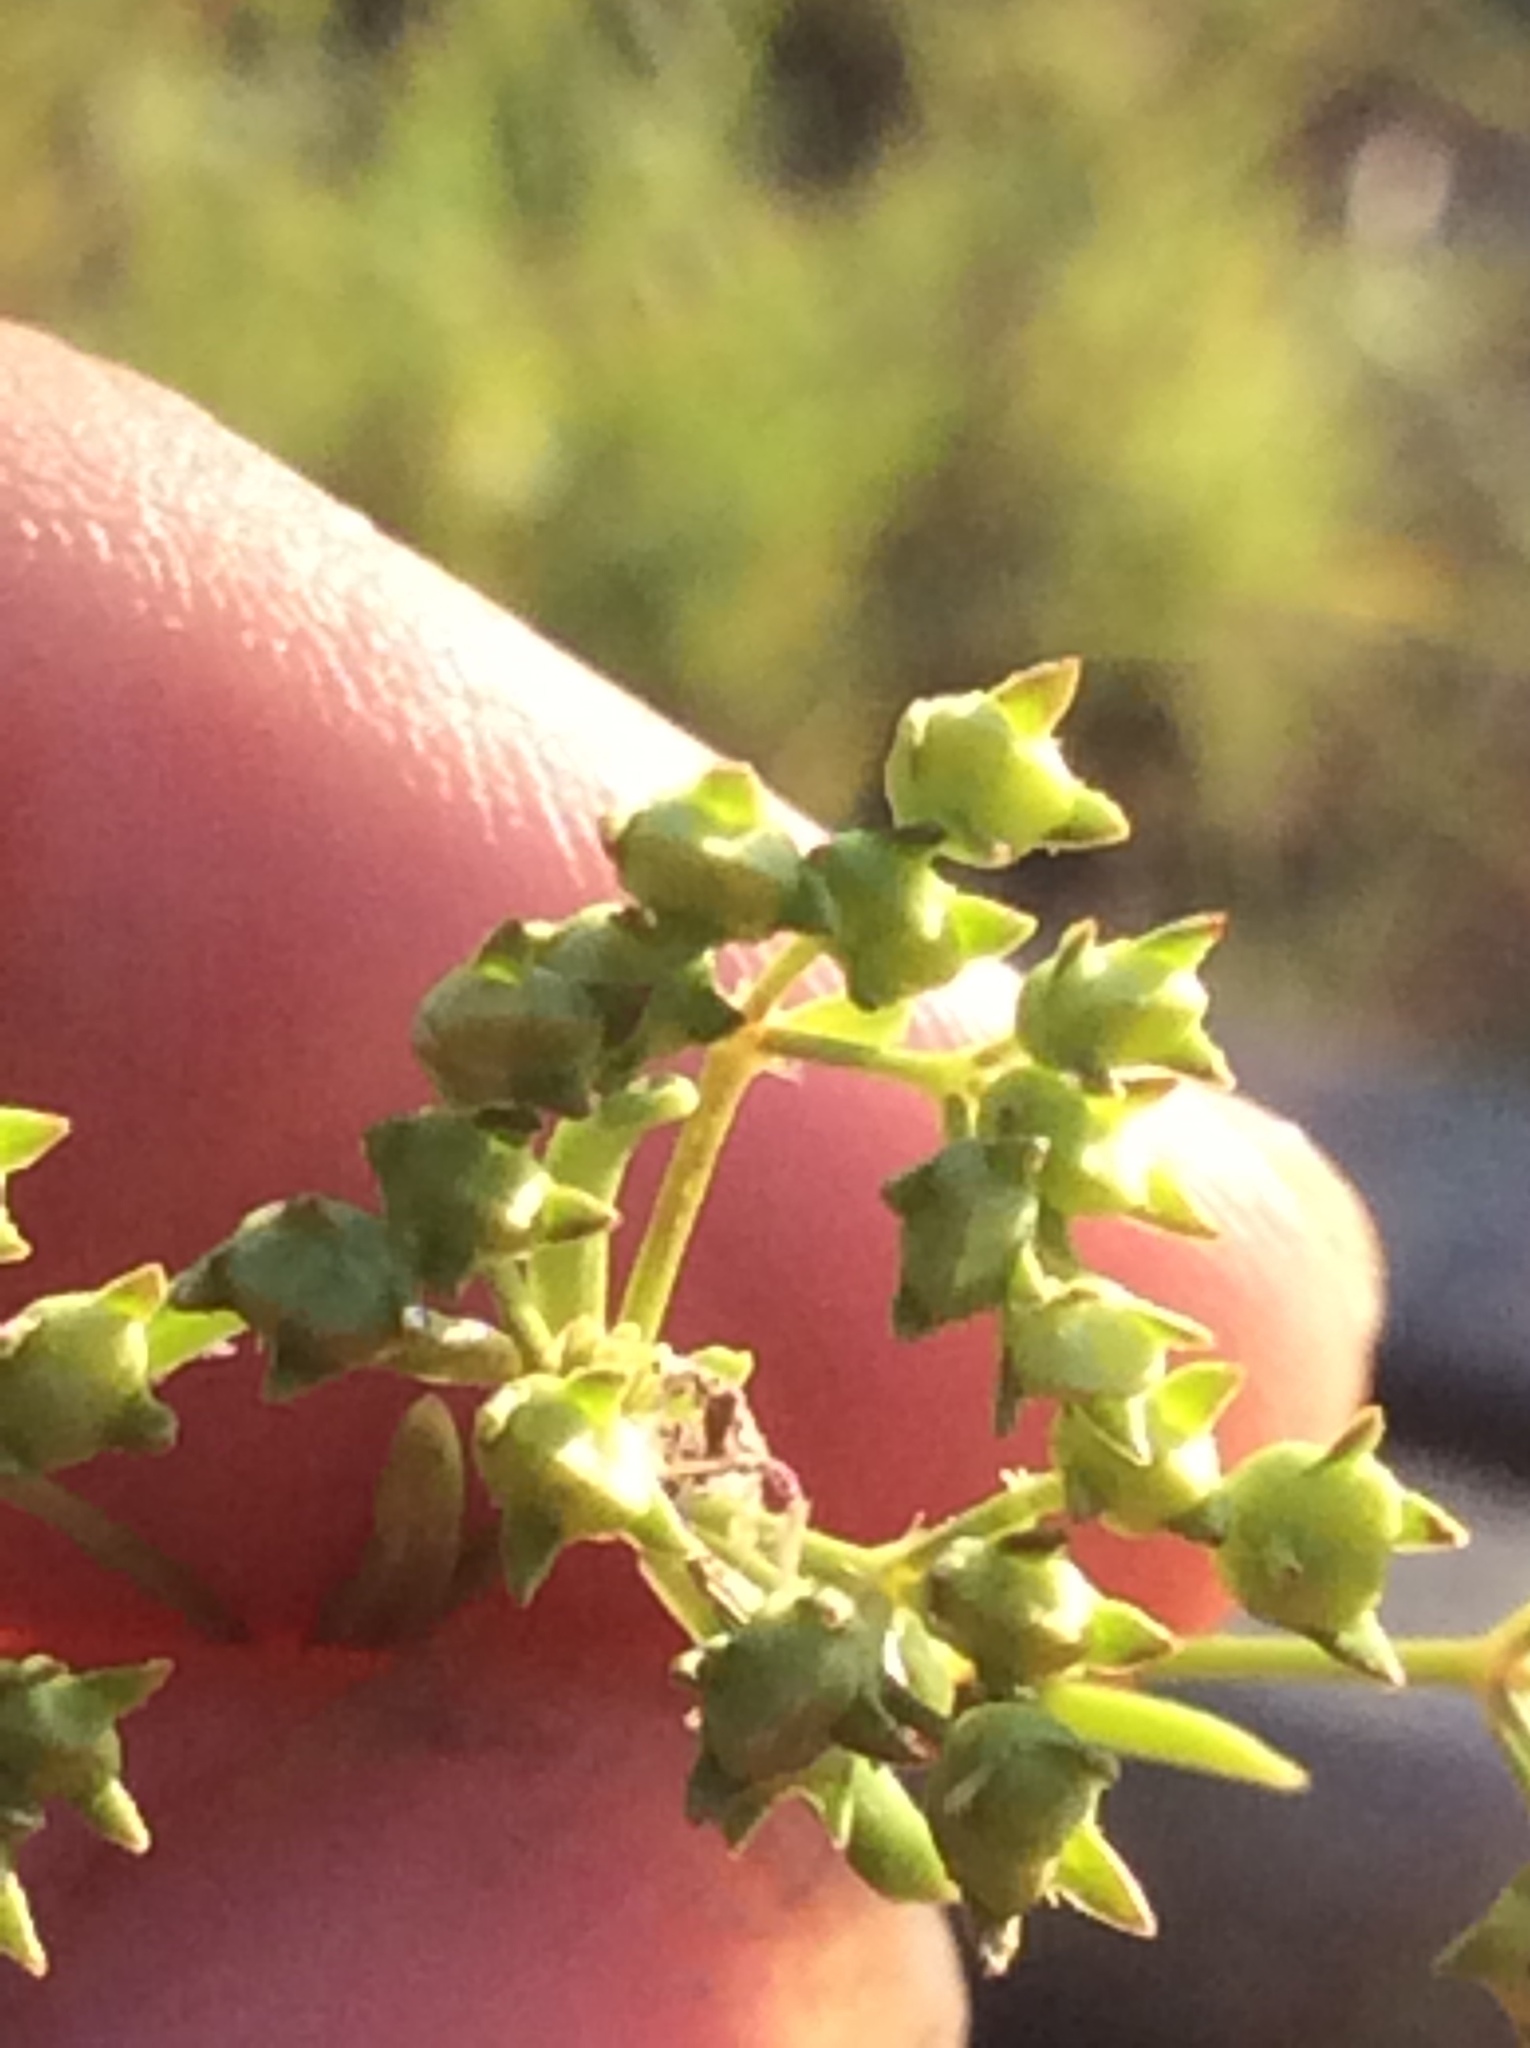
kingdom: Plantae
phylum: Tracheophyta
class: Magnoliopsida
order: Gentianales
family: Rubiaceae
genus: Stenaria
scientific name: Stenaria nigricans
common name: Diamondflowers
